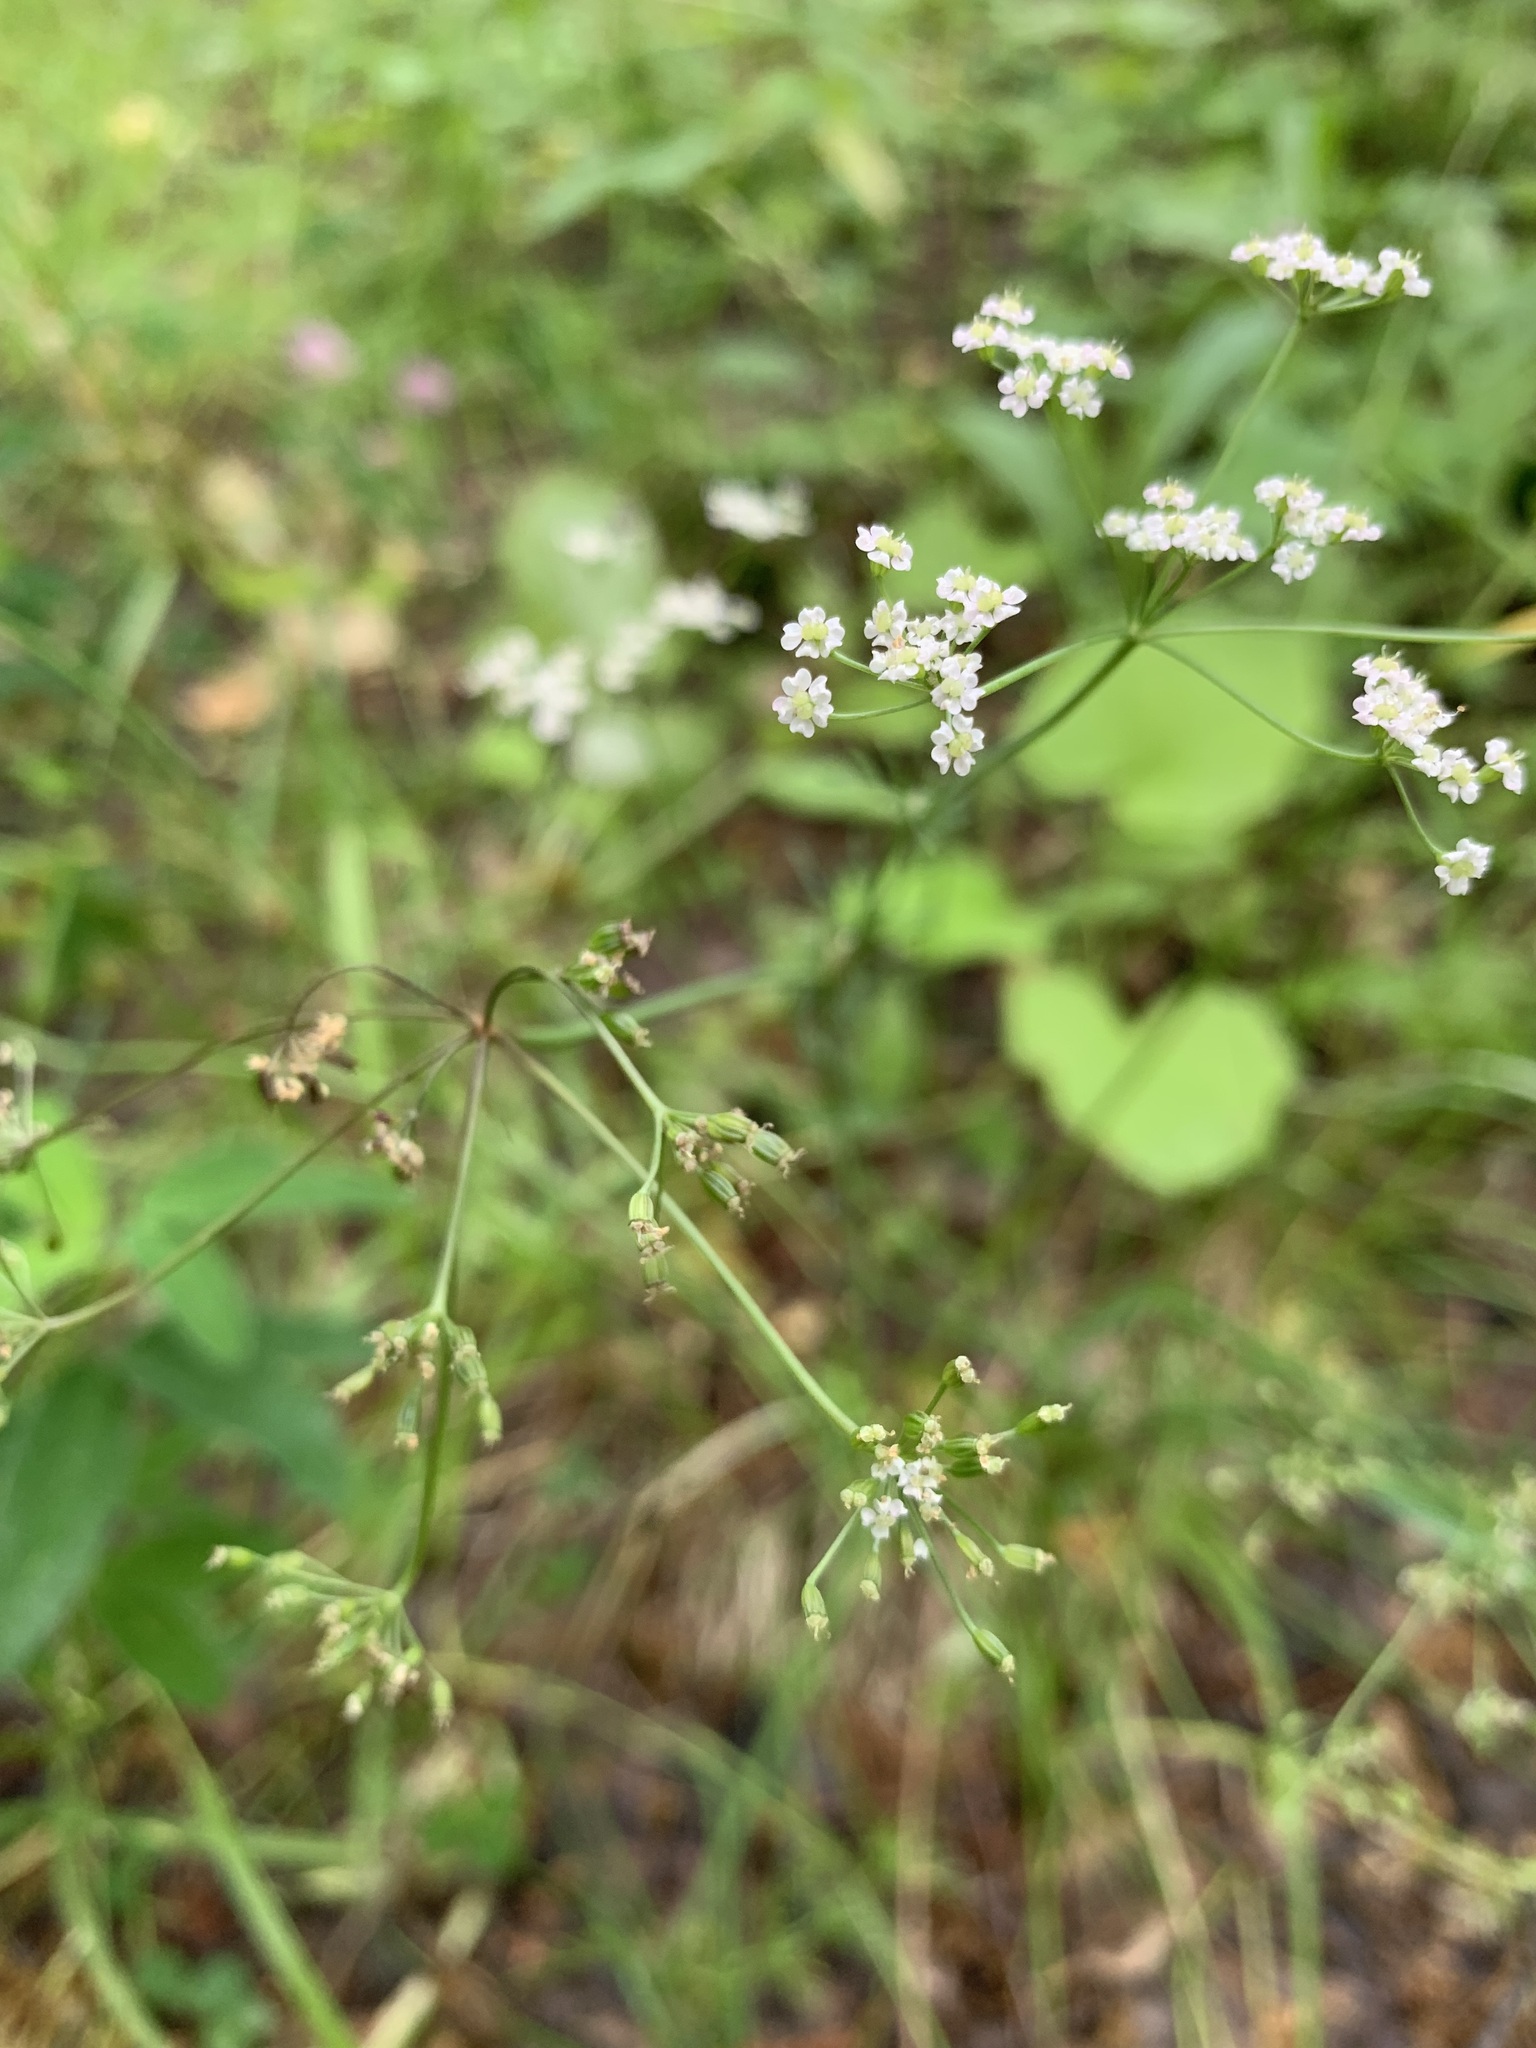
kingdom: Plantae
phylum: Tracheophyta
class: Magnoliopsida
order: Apiales
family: Apiaceae
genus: Carum
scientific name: Carum carvi
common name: Caraway
